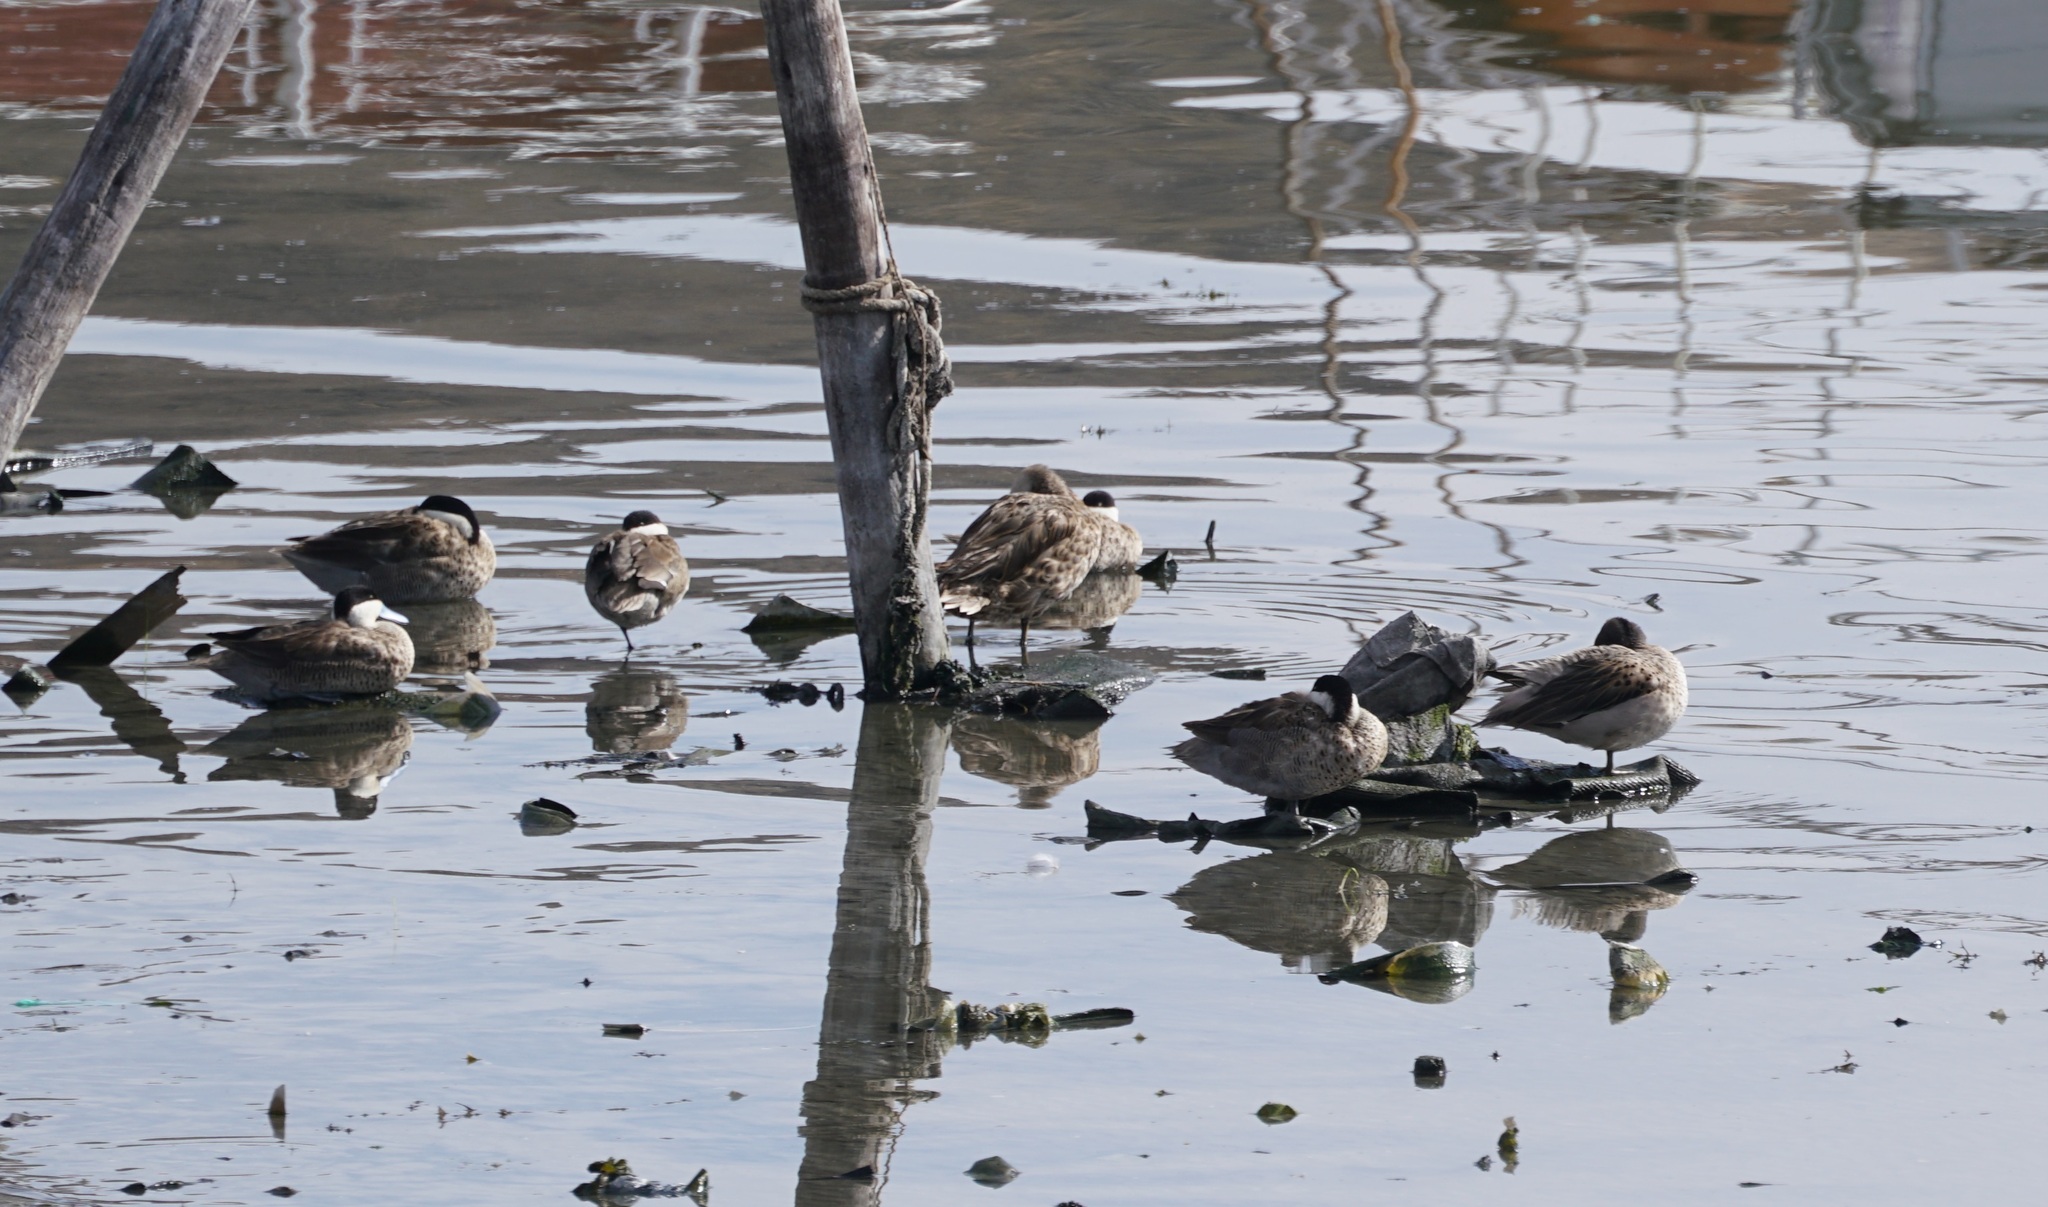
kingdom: Animalia
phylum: Chordata
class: Aves
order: Anseriformes
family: Anatidae
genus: Spatula
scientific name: Spatula puna
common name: Puna teal
